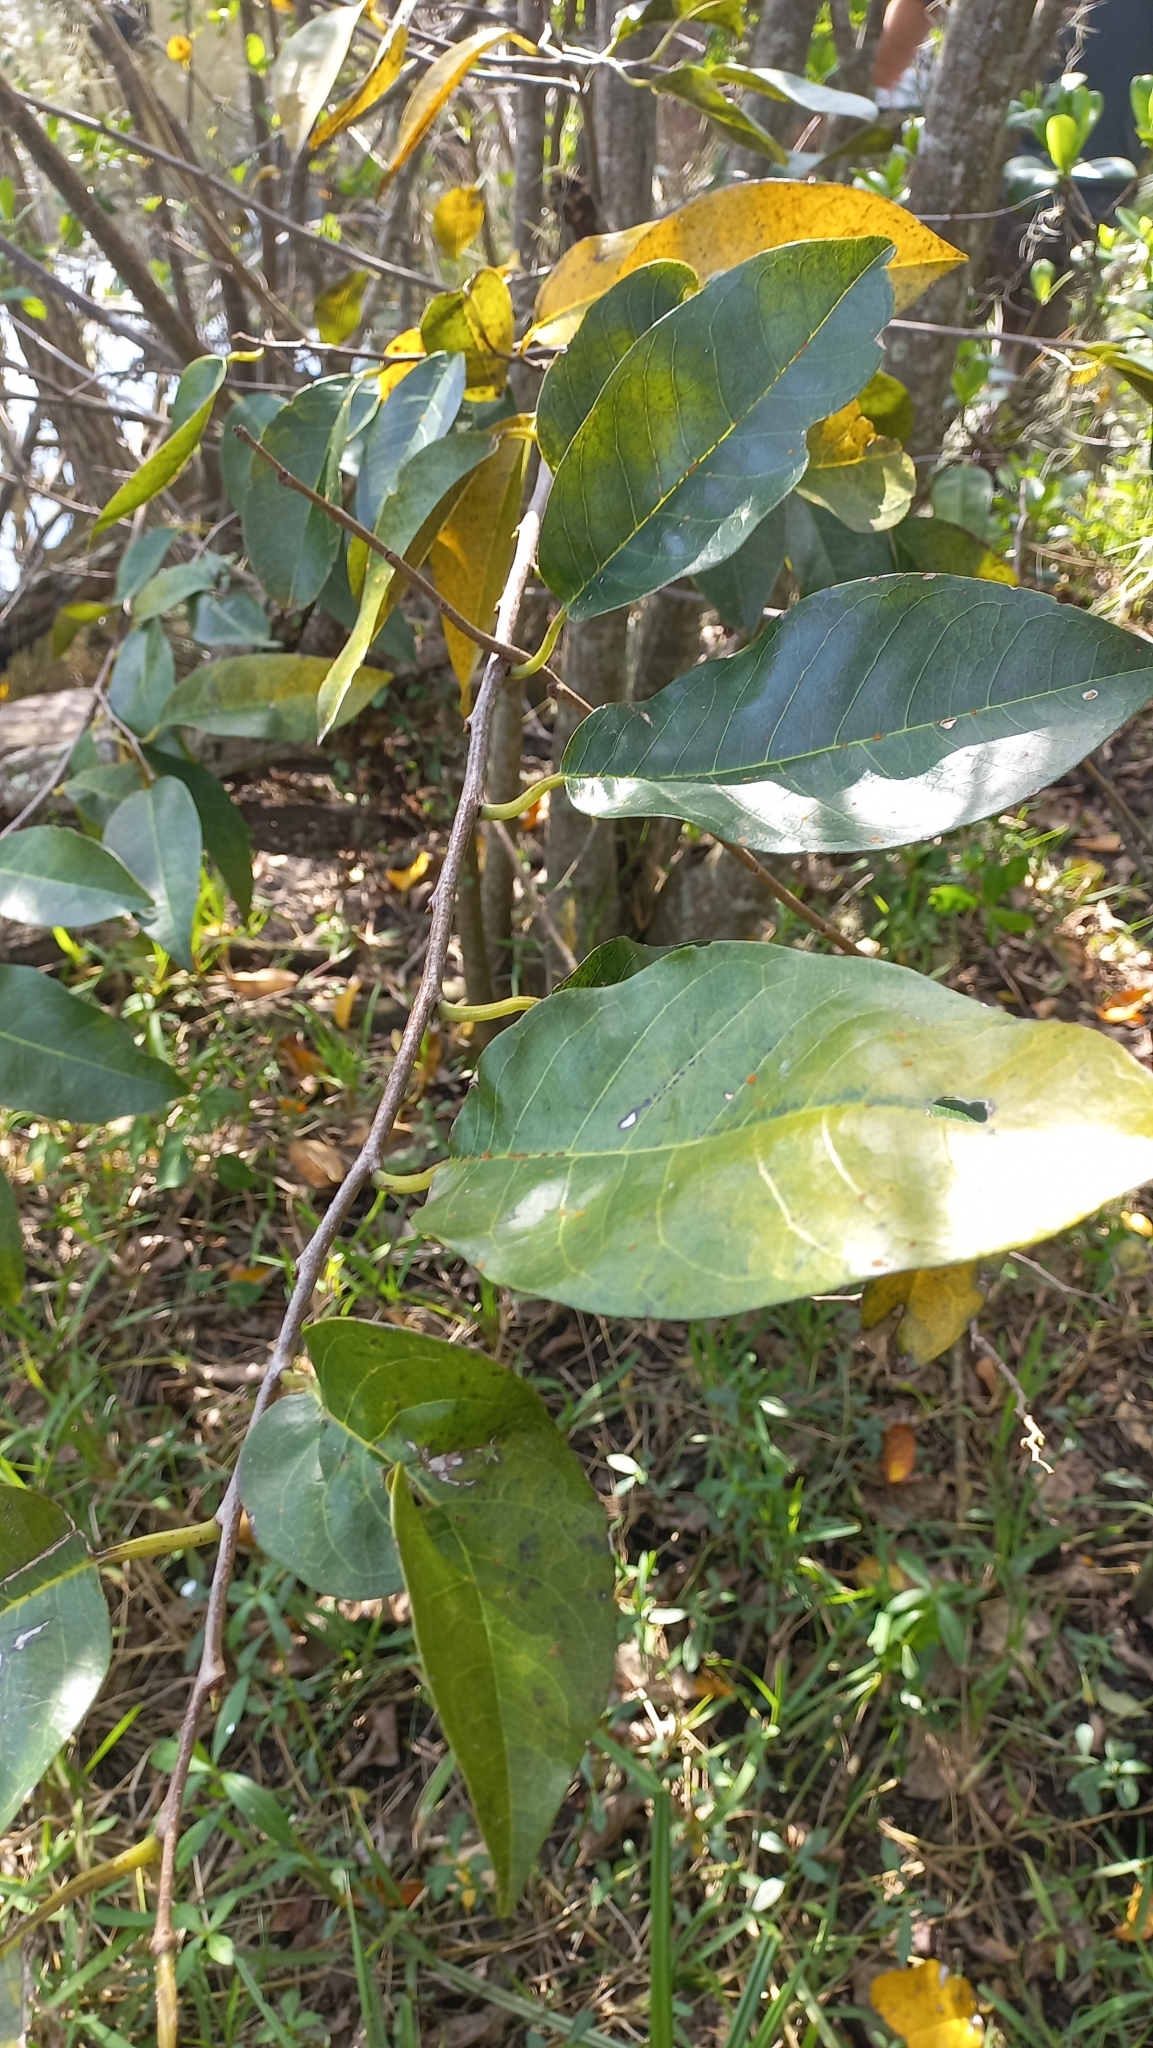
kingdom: Plantae
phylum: Tracheophyta
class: Magnoliopsida
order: Magnoliales
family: Annonaceae
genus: Annona
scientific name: Annona glabra
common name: Monkey apple
